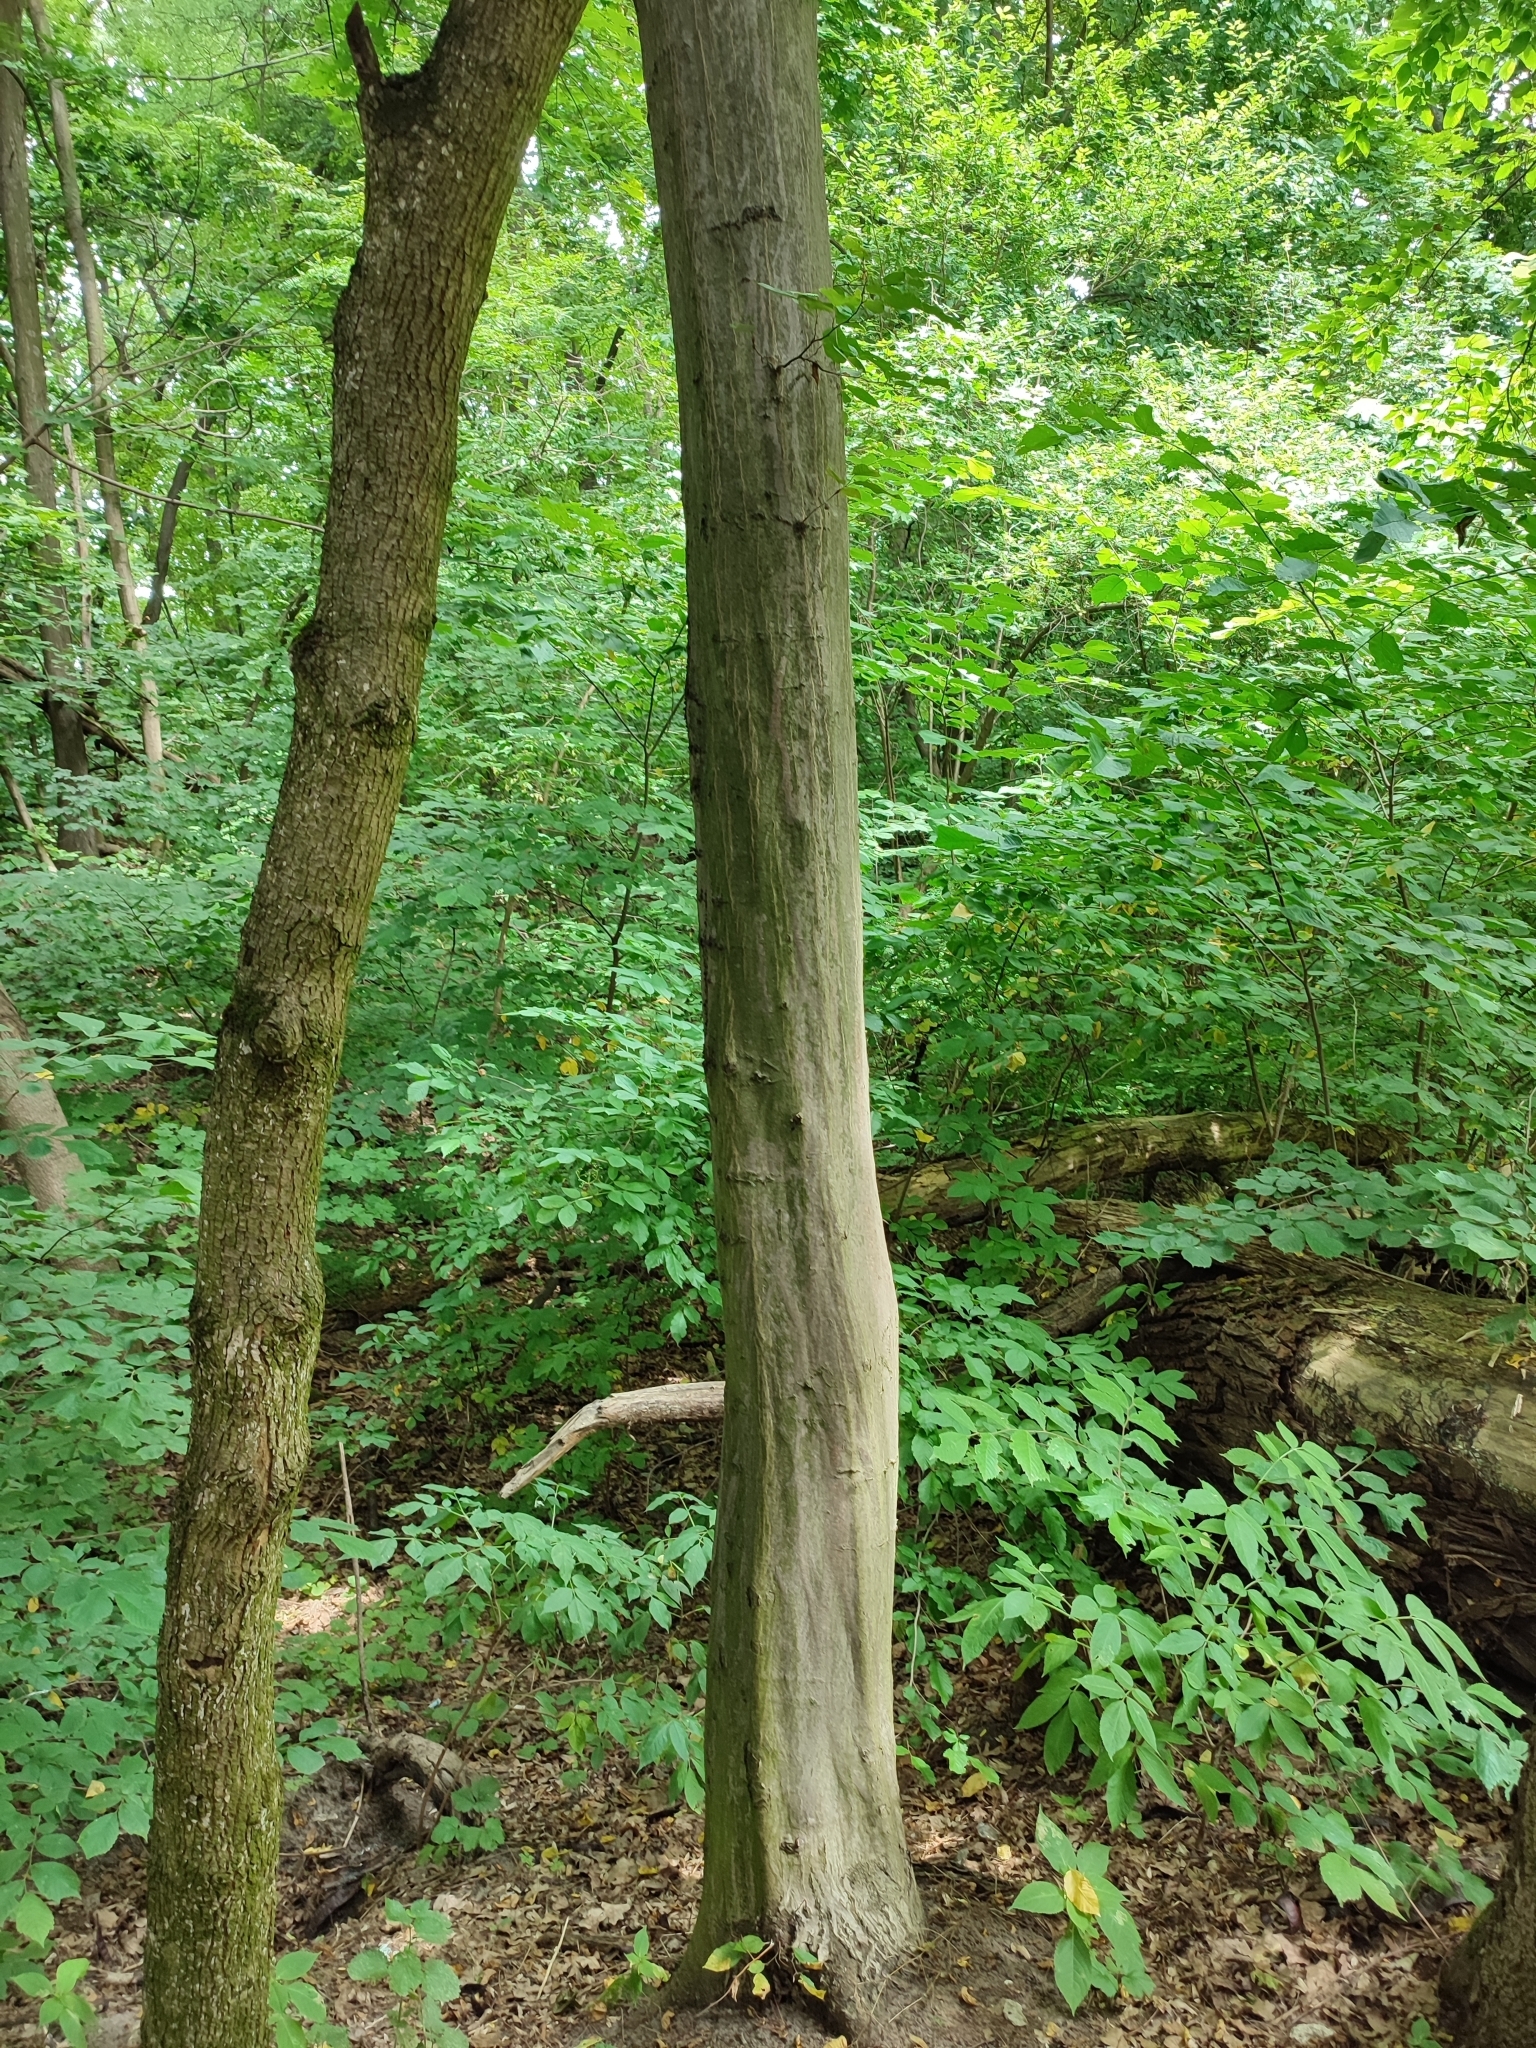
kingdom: Plantae
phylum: Tracheophyta
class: Magnoliopsida
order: Fagales
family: Betulaceae
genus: Carpinus
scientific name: Carpinus betulus
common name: Hornbeam
